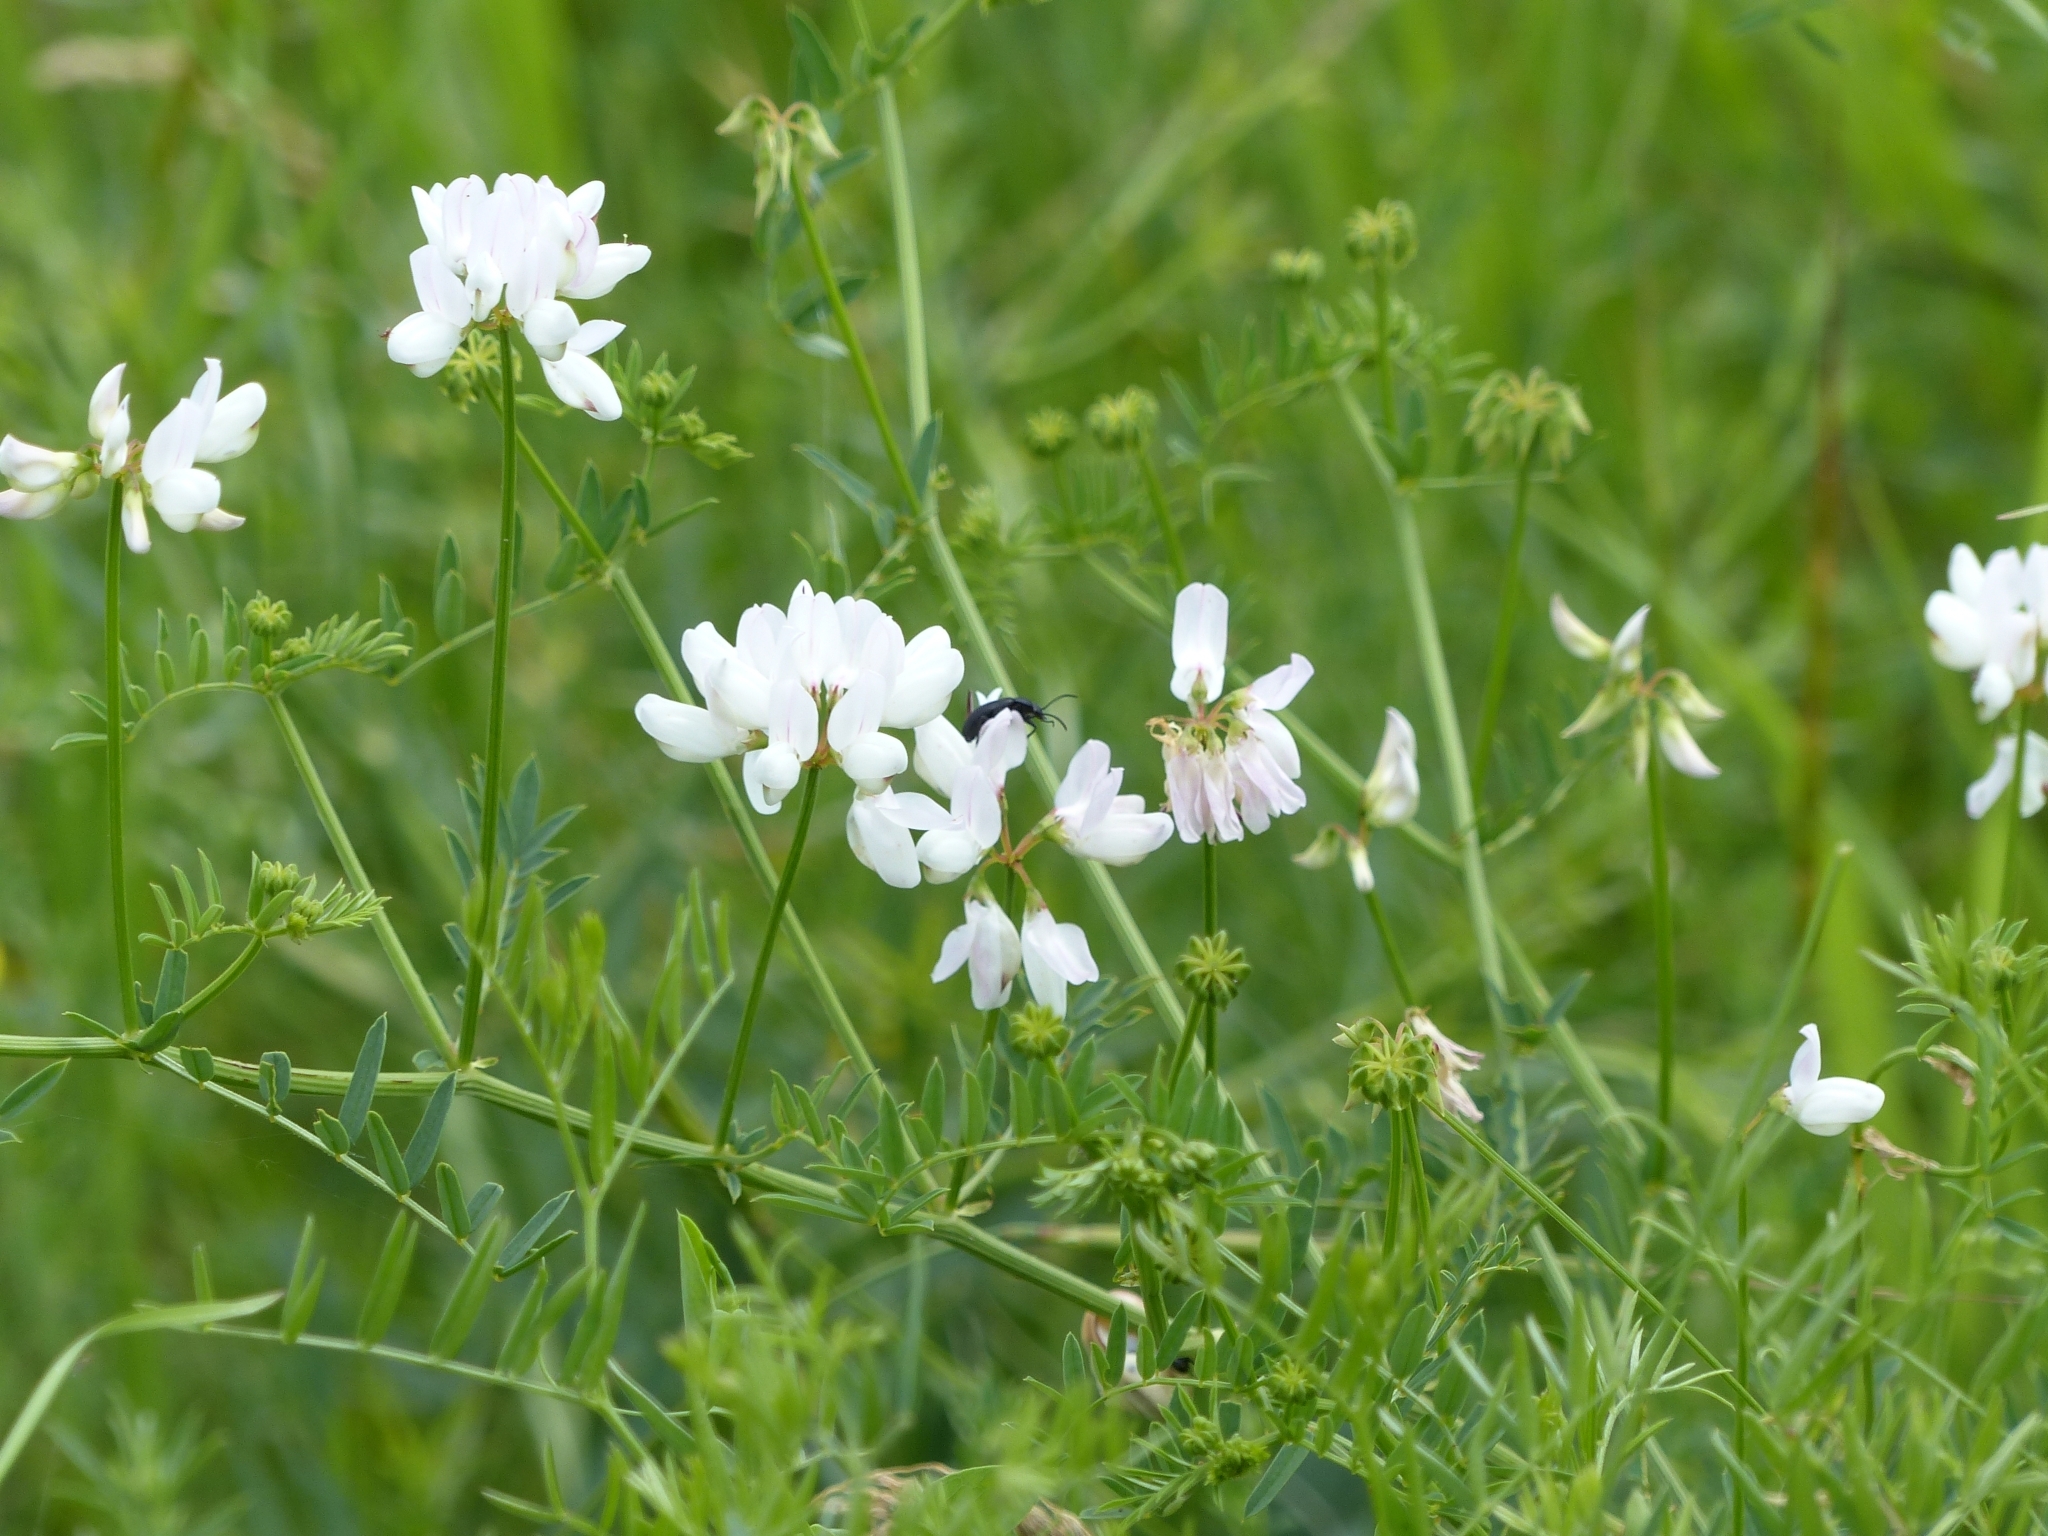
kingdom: Plantae
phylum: Tracheophyta
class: Magnoliopsida
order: Fabales
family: Fabaceae
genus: Coronilla
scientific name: Coronilla varia
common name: Crownvetch
